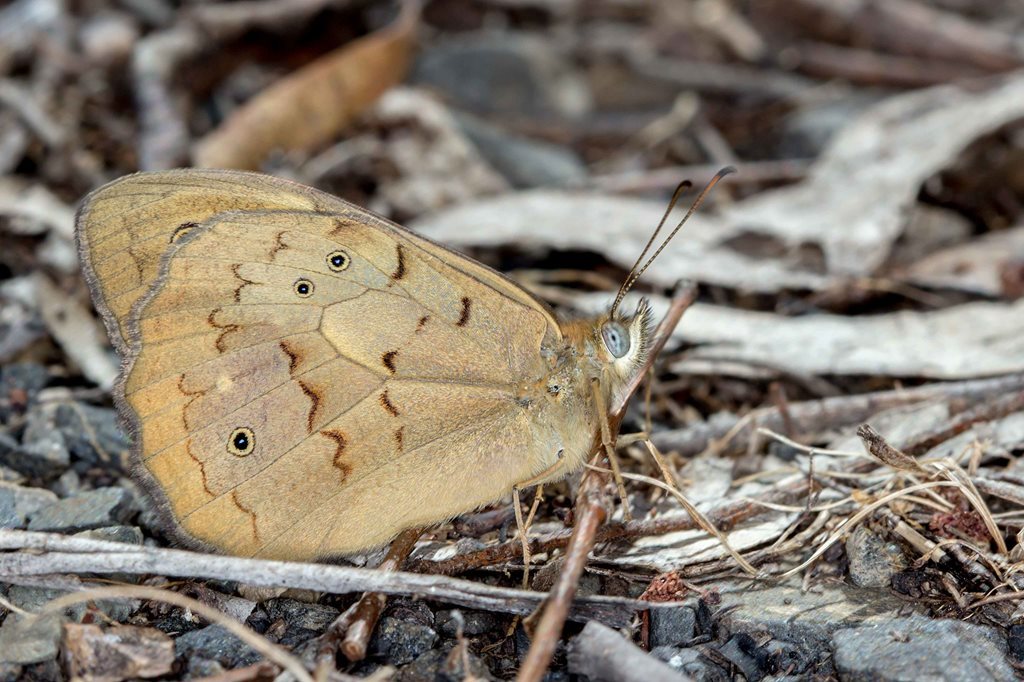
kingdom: Animalia
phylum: Arthropoda
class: Insecta
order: Lepidoptera
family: Nymphalidae
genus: Heteronympha
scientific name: Heteronympha merope
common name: Common brown
